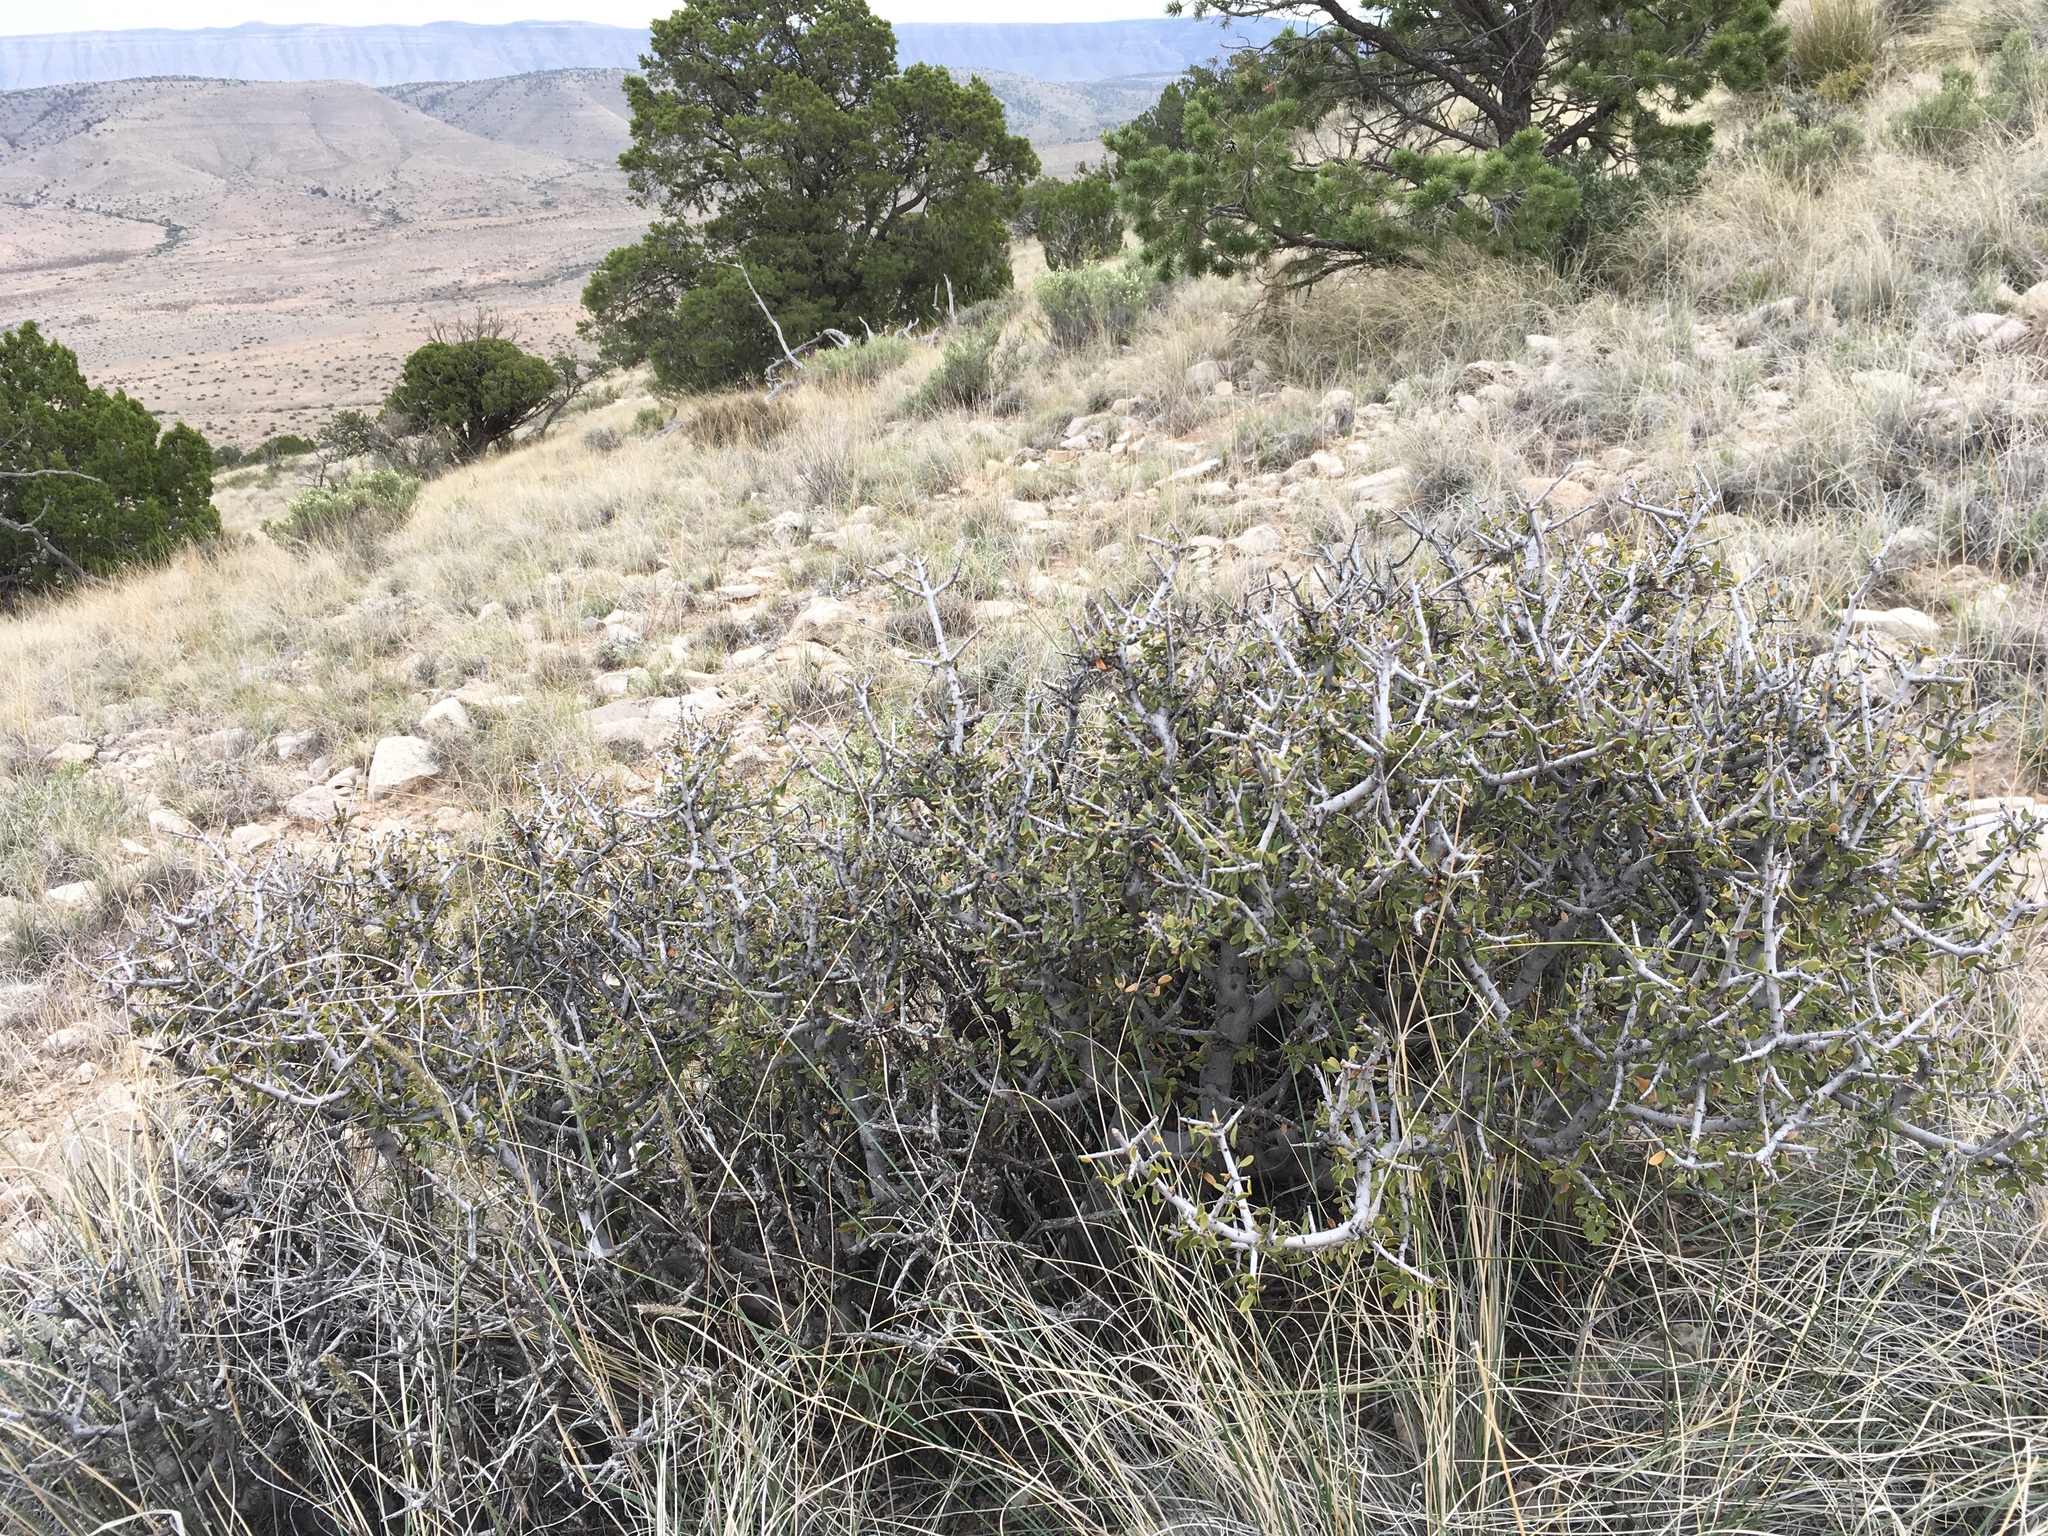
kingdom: Plantae
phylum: Tracheophyta
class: Magnoliopsida
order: Rosales
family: Rhamnaceae
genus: Ceanothus
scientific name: Ceanothus pauciflorus
